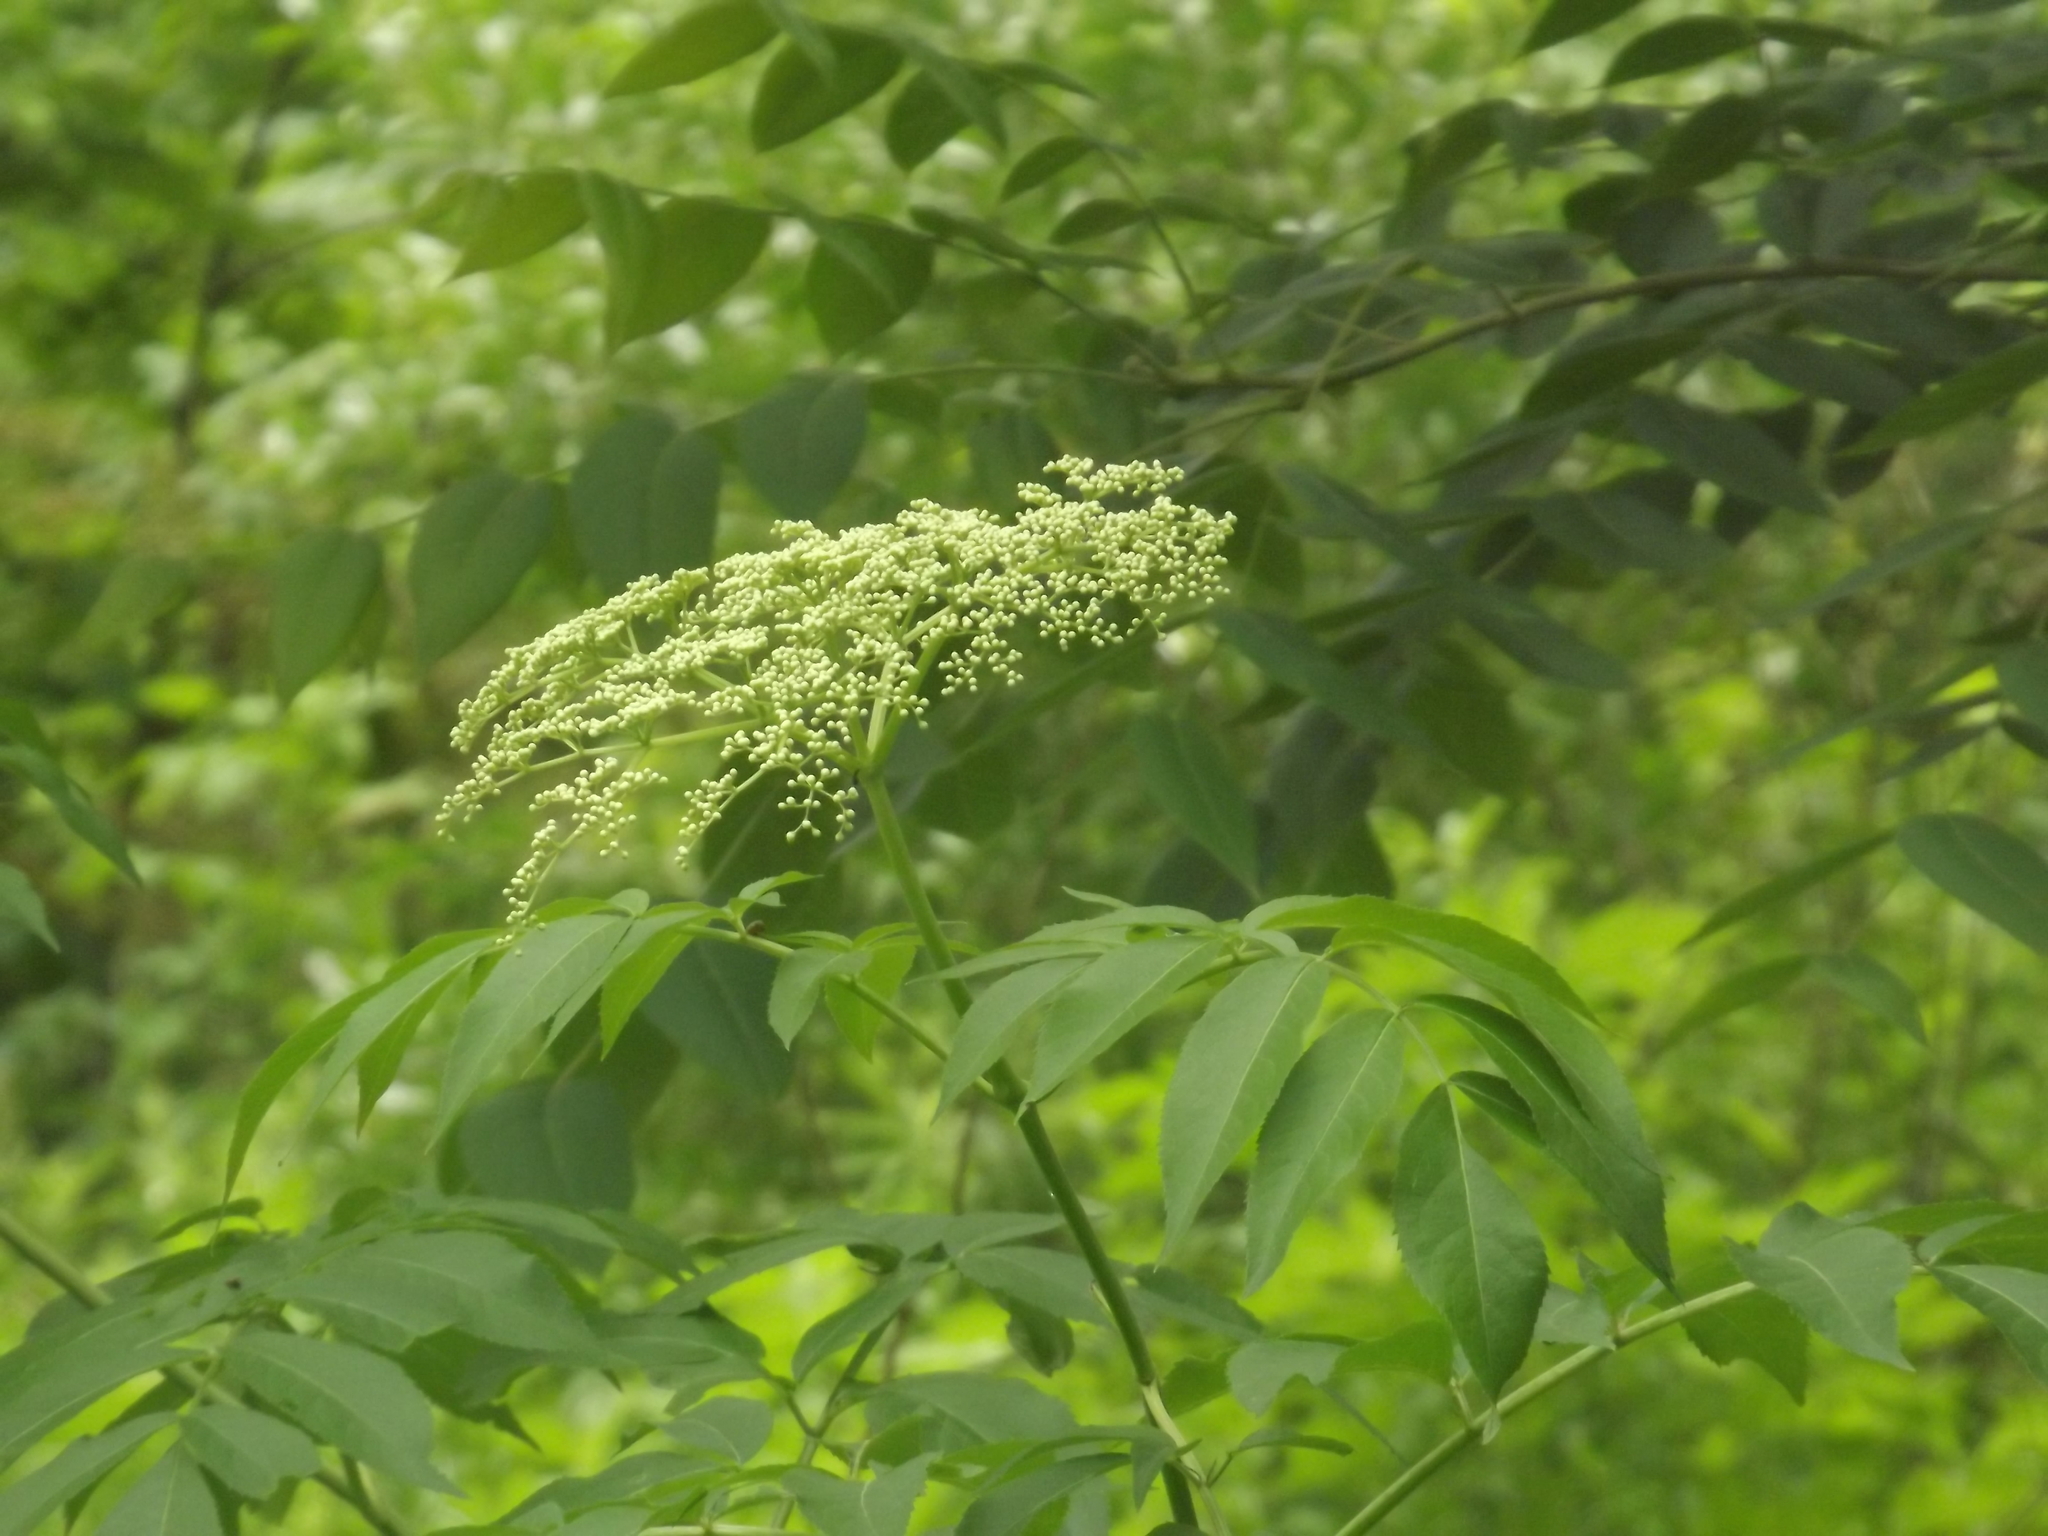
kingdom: Plantae
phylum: Tracheophyta
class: Magnoliopsida
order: Dipsacales
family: Viburnaceae
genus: Sambucus
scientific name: Sambucus canadensis
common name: American elder
